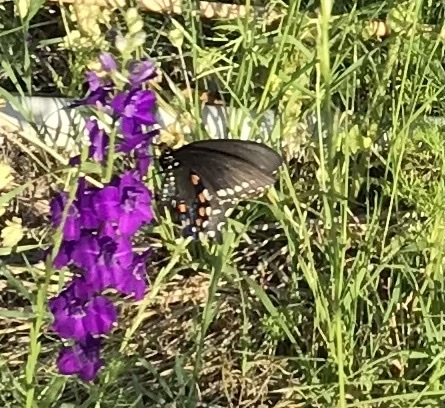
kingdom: Animalia
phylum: Arthropoda
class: Insecta
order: Lepidoptera
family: Papilionidae
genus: Battus
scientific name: Battus philenor
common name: Pipevine swallowtail
